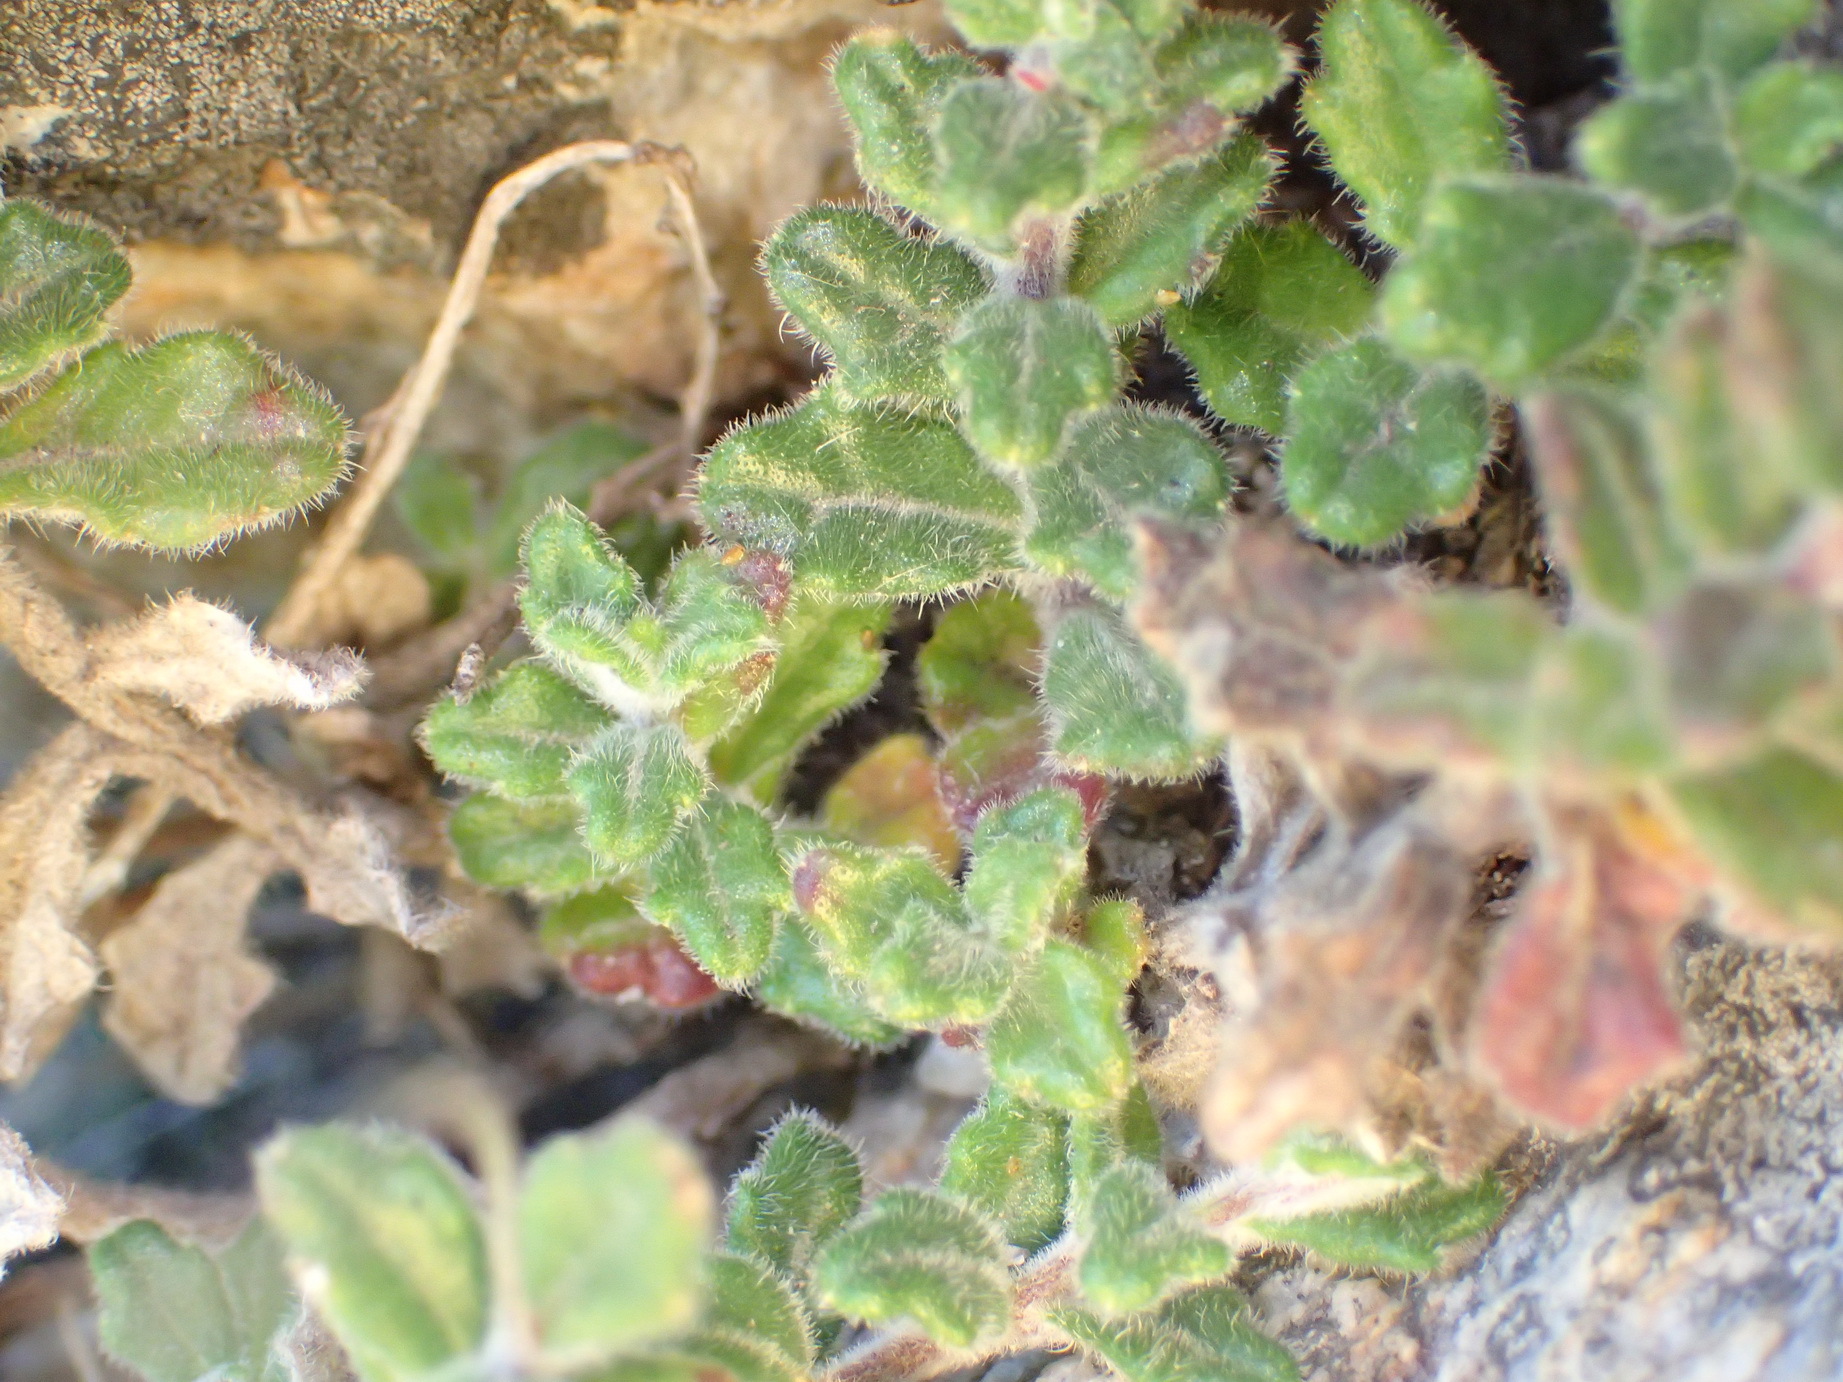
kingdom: Plantae
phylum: Tracheophyta
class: Magnoliopsida
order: Asterales
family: Campanulaceae
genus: Lobelia
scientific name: Lobelia dichroma
